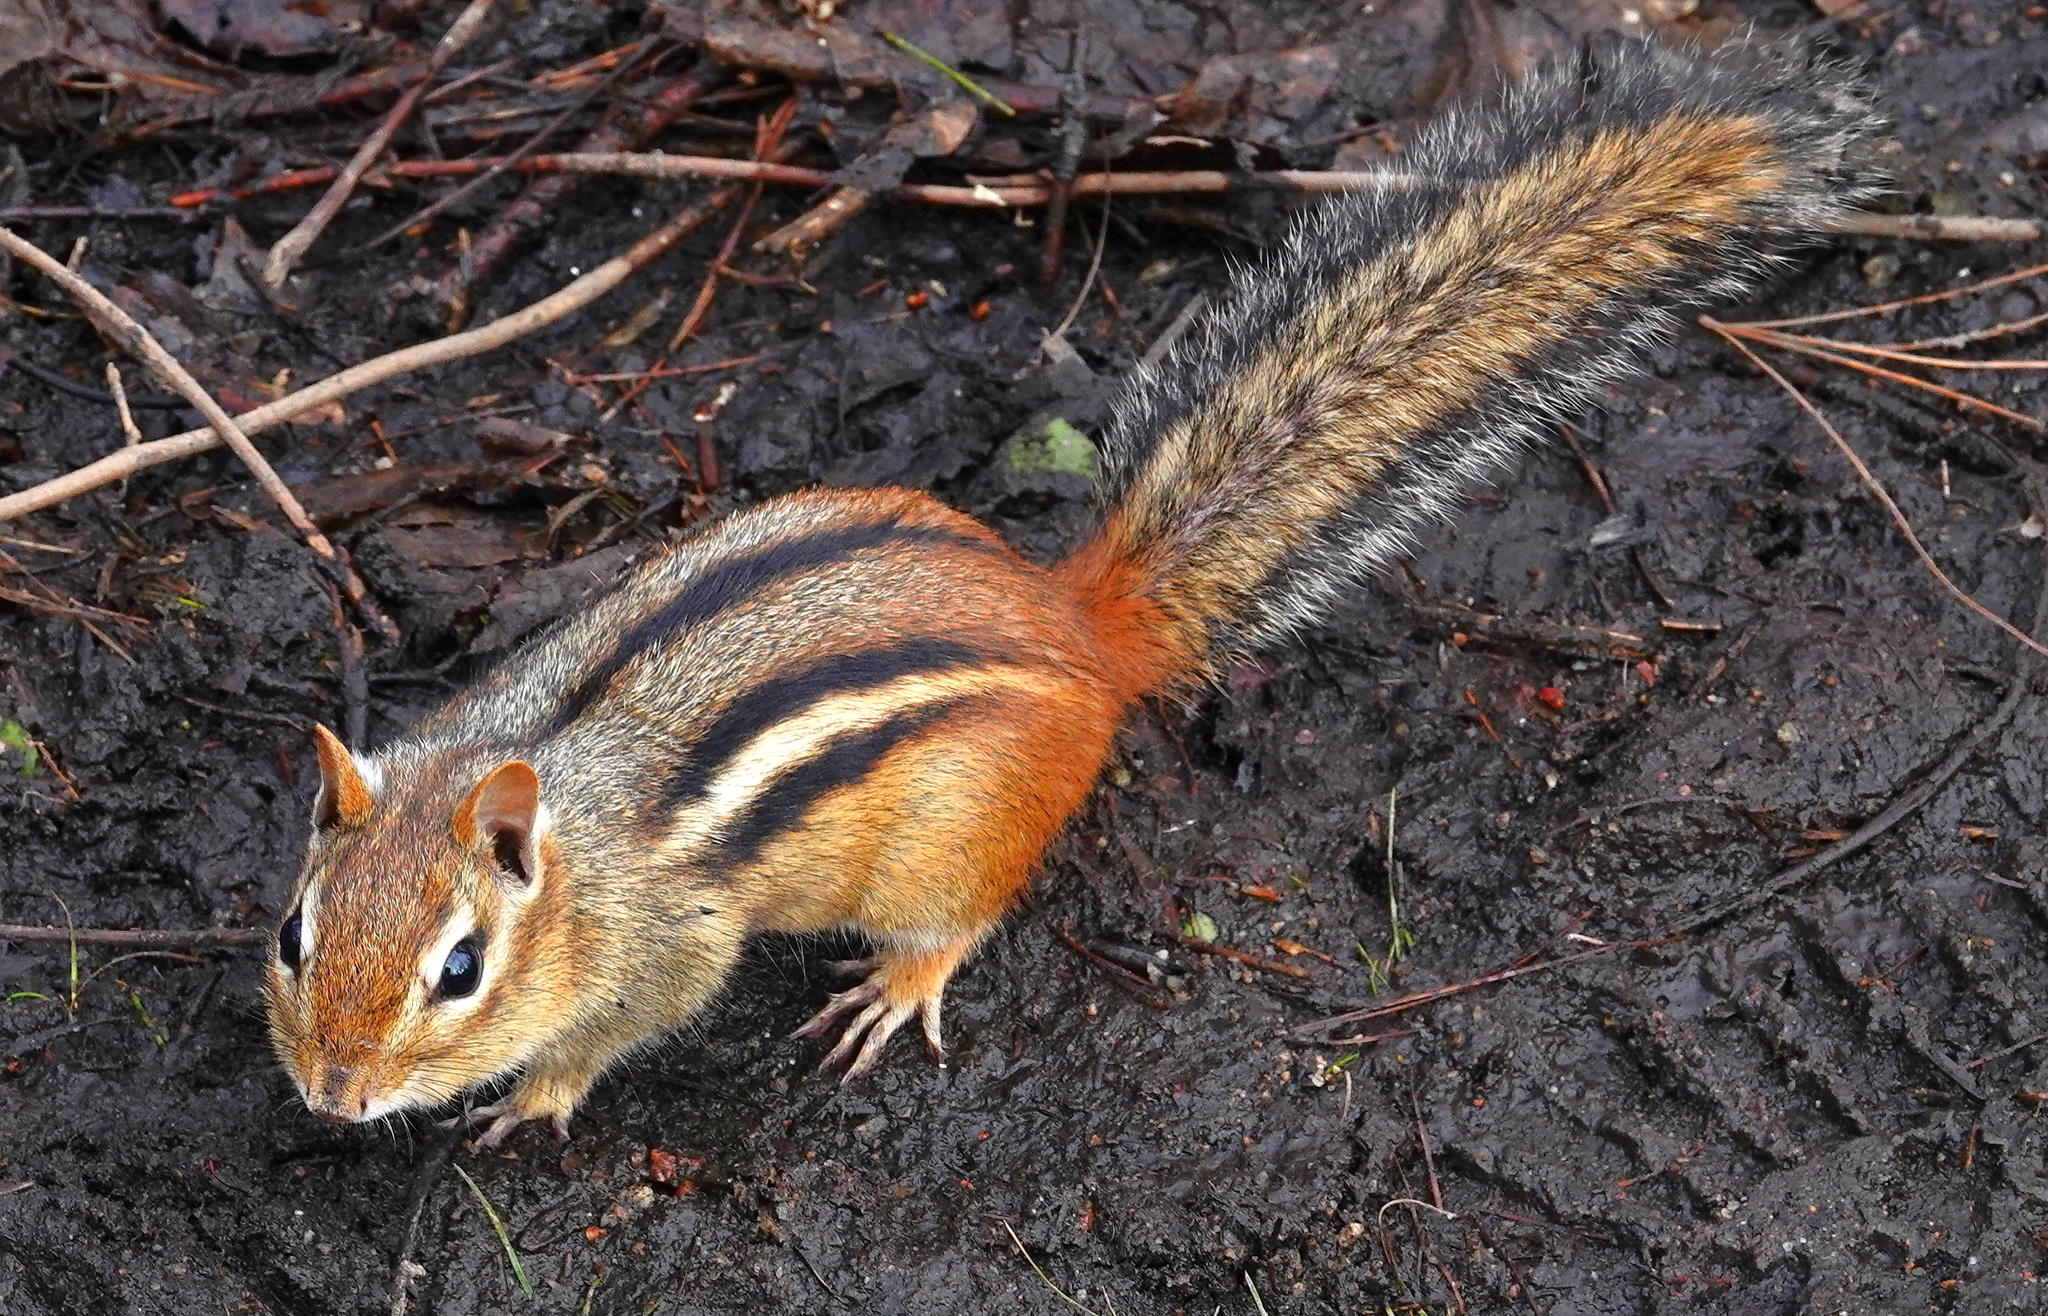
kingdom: Animalia
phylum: Chordata
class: Mammalia
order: Rodentia
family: Sciuridae
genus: Tamias
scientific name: Tamias striatus
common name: Eastern chipmunk
